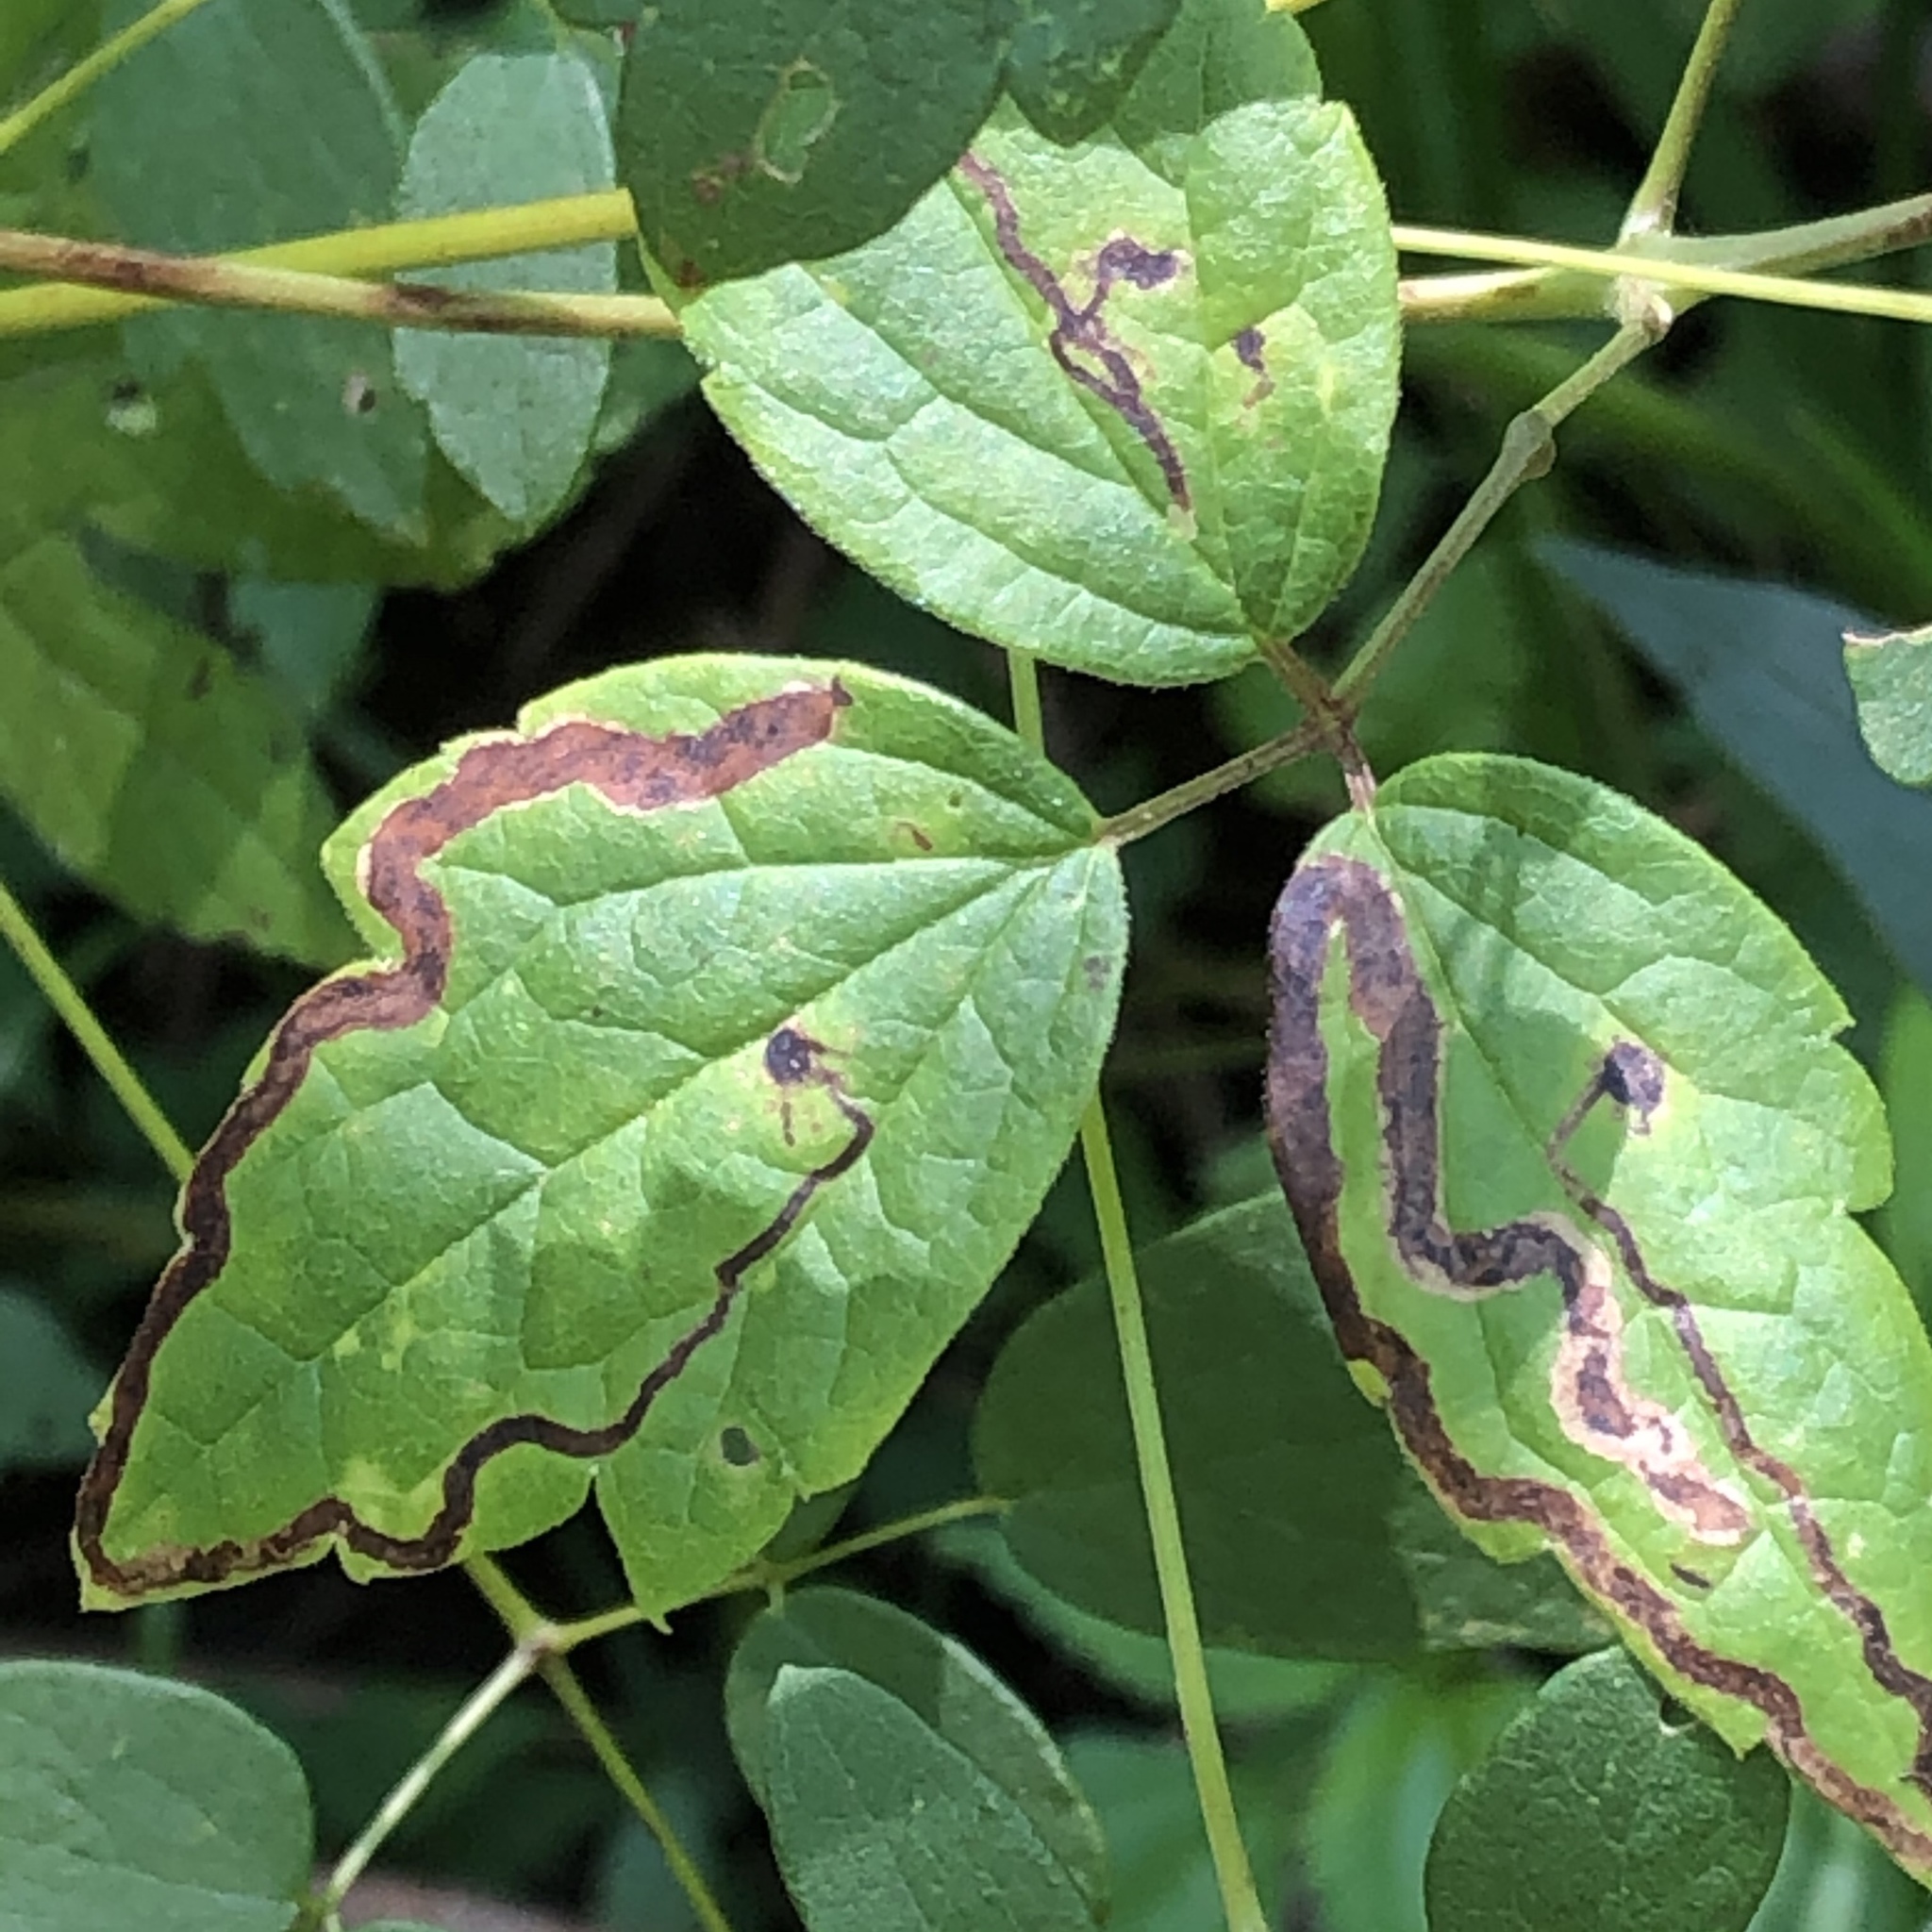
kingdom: Animalia
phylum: Arthropoda
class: Insecta
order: Diptera
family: Agromyzidae
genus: Phytomyza
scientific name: Phytomyza loewii
